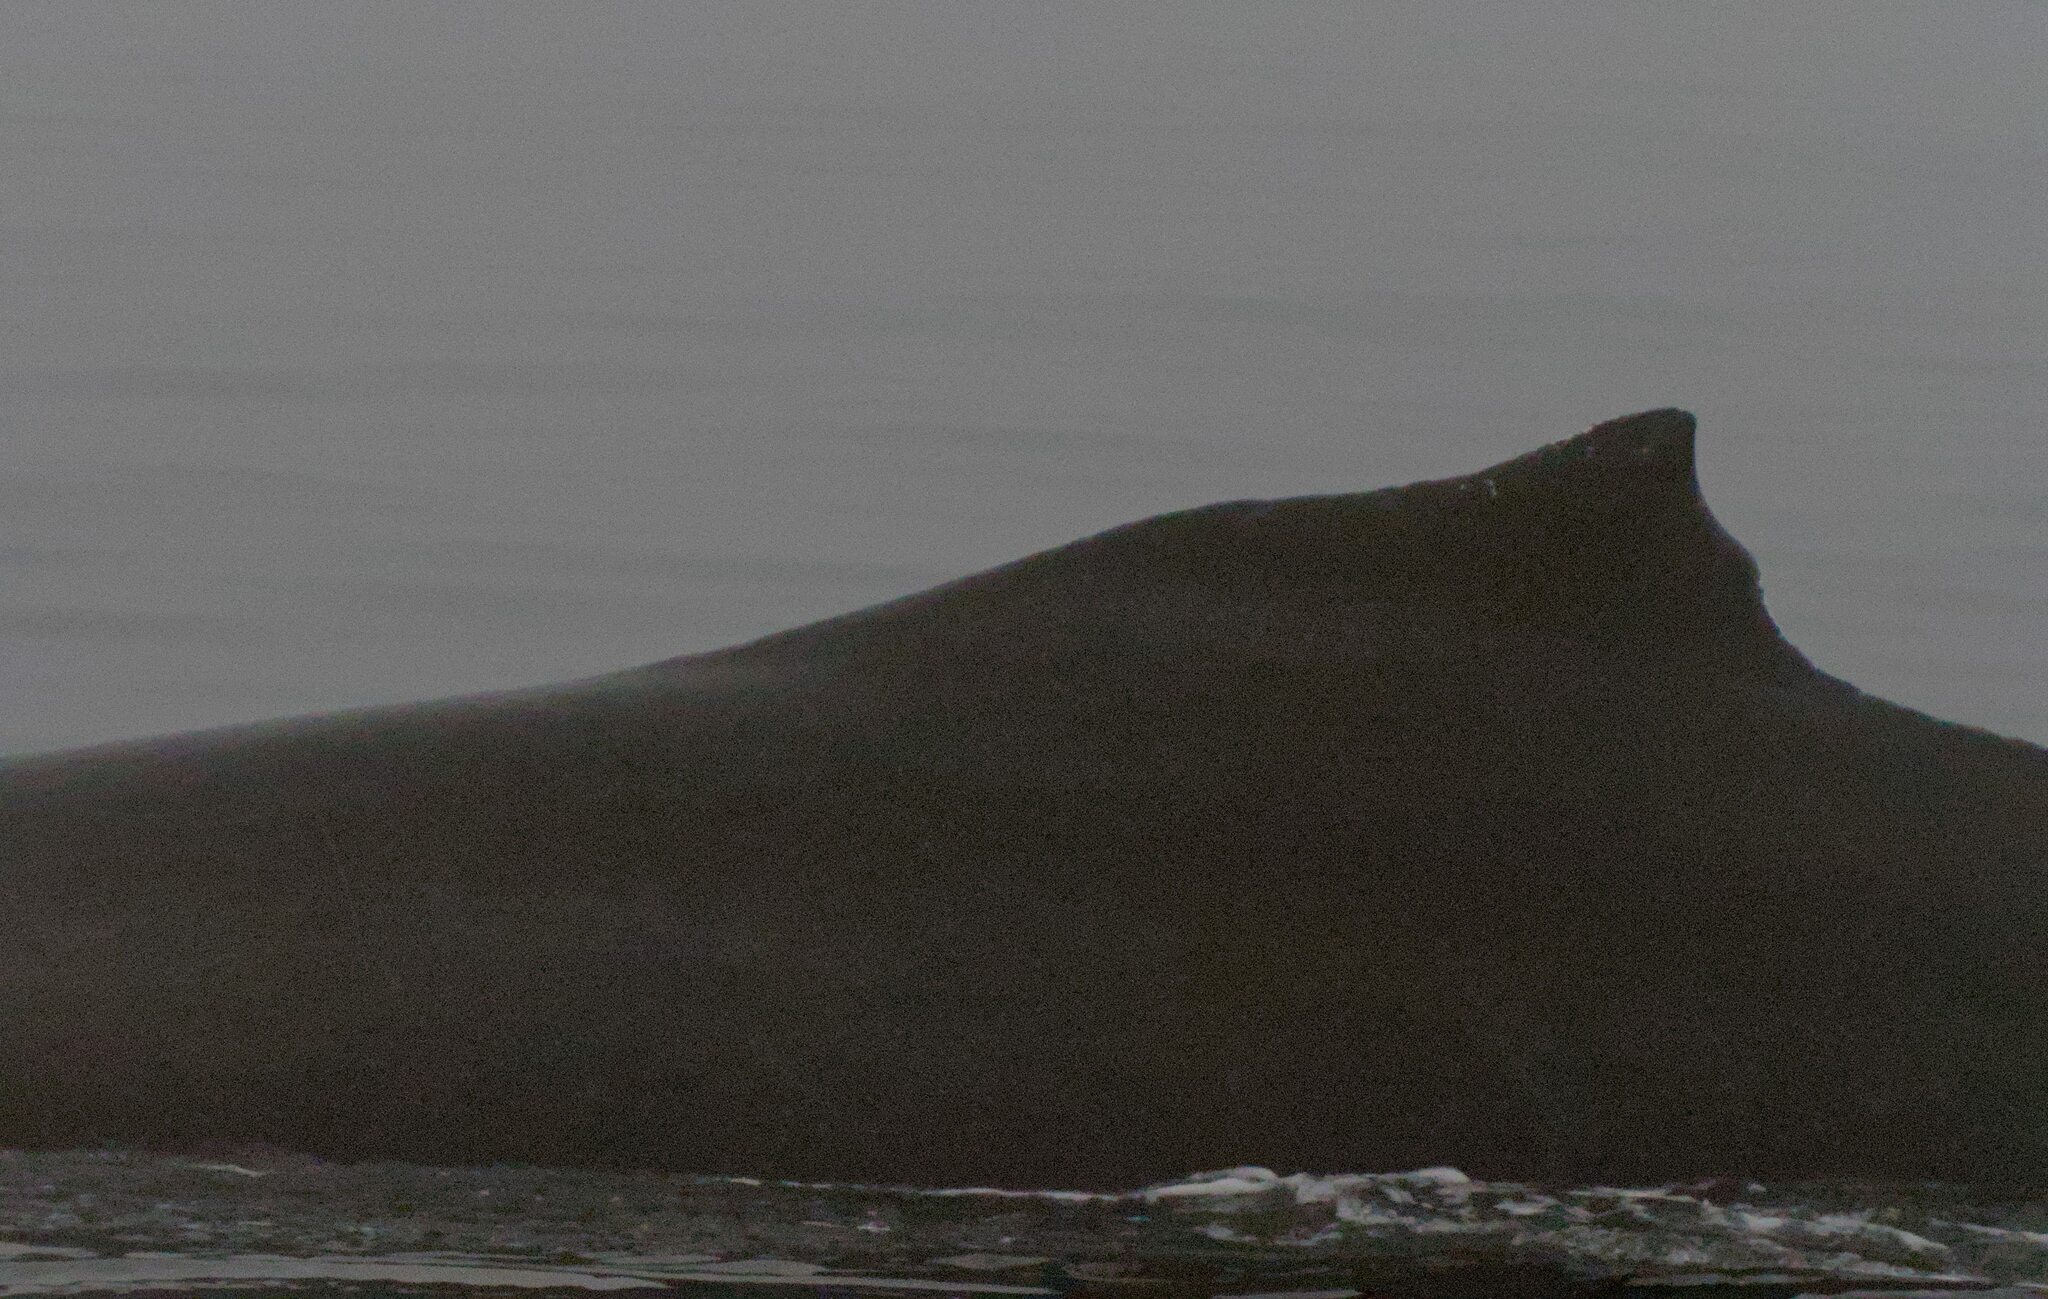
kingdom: Animalia
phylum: Chordata
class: Mammalia
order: Cetacea
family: Balaenopteridae
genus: Megaptera
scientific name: Megaptera novaeangliae
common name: Humpback whale
